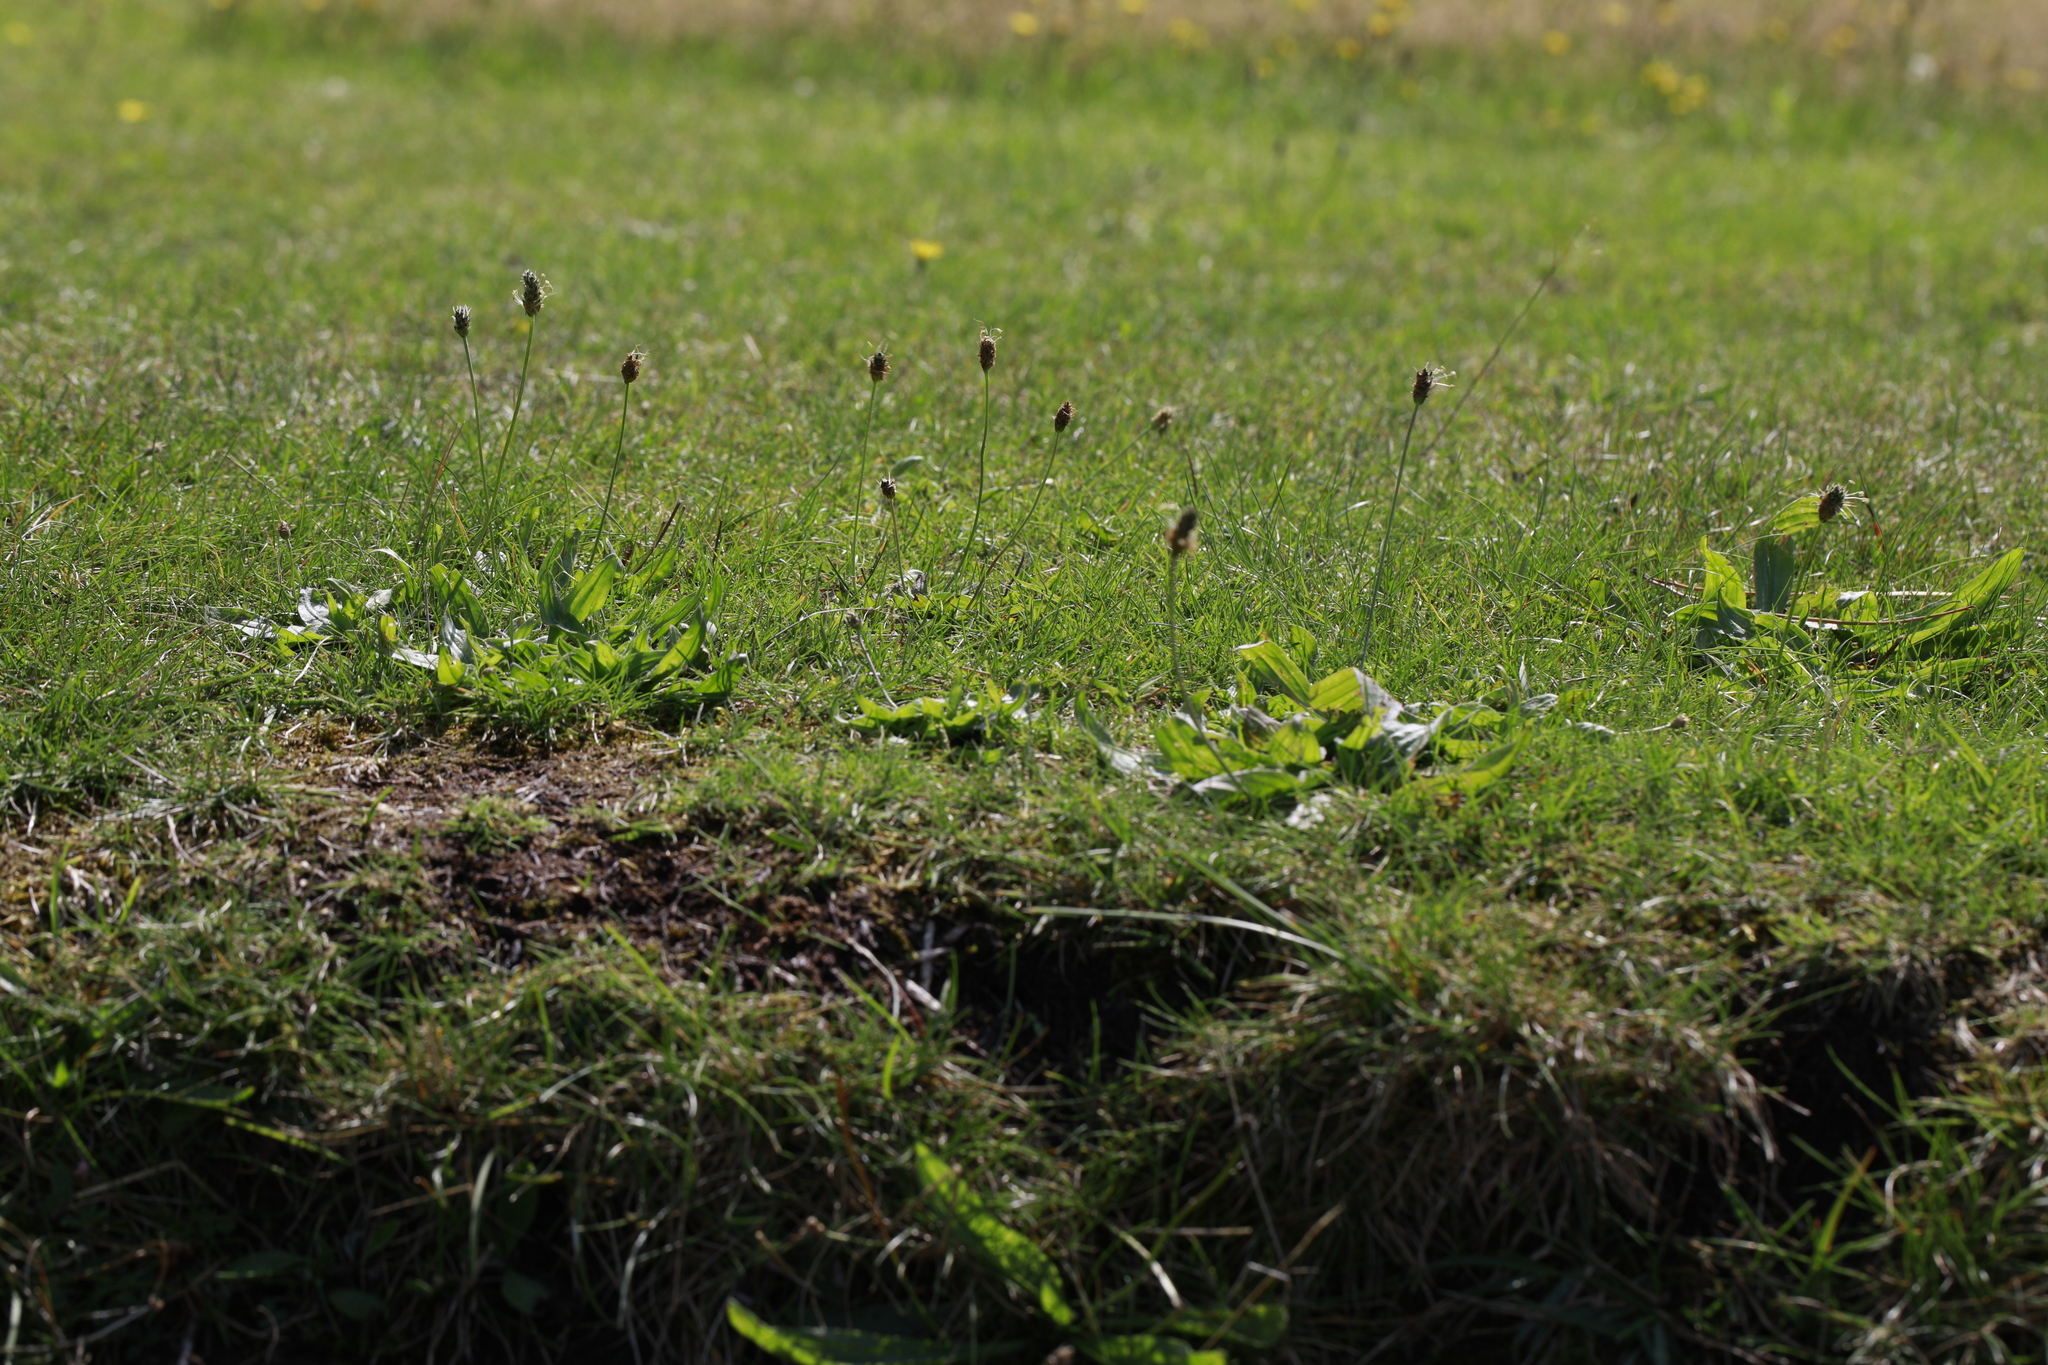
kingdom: Plantae
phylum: Tracheophyta
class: Magnoliopsida
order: Lamiales
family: Plantaginaceae
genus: Plantago
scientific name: Plantago lanceolata
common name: Ribwort plantain
